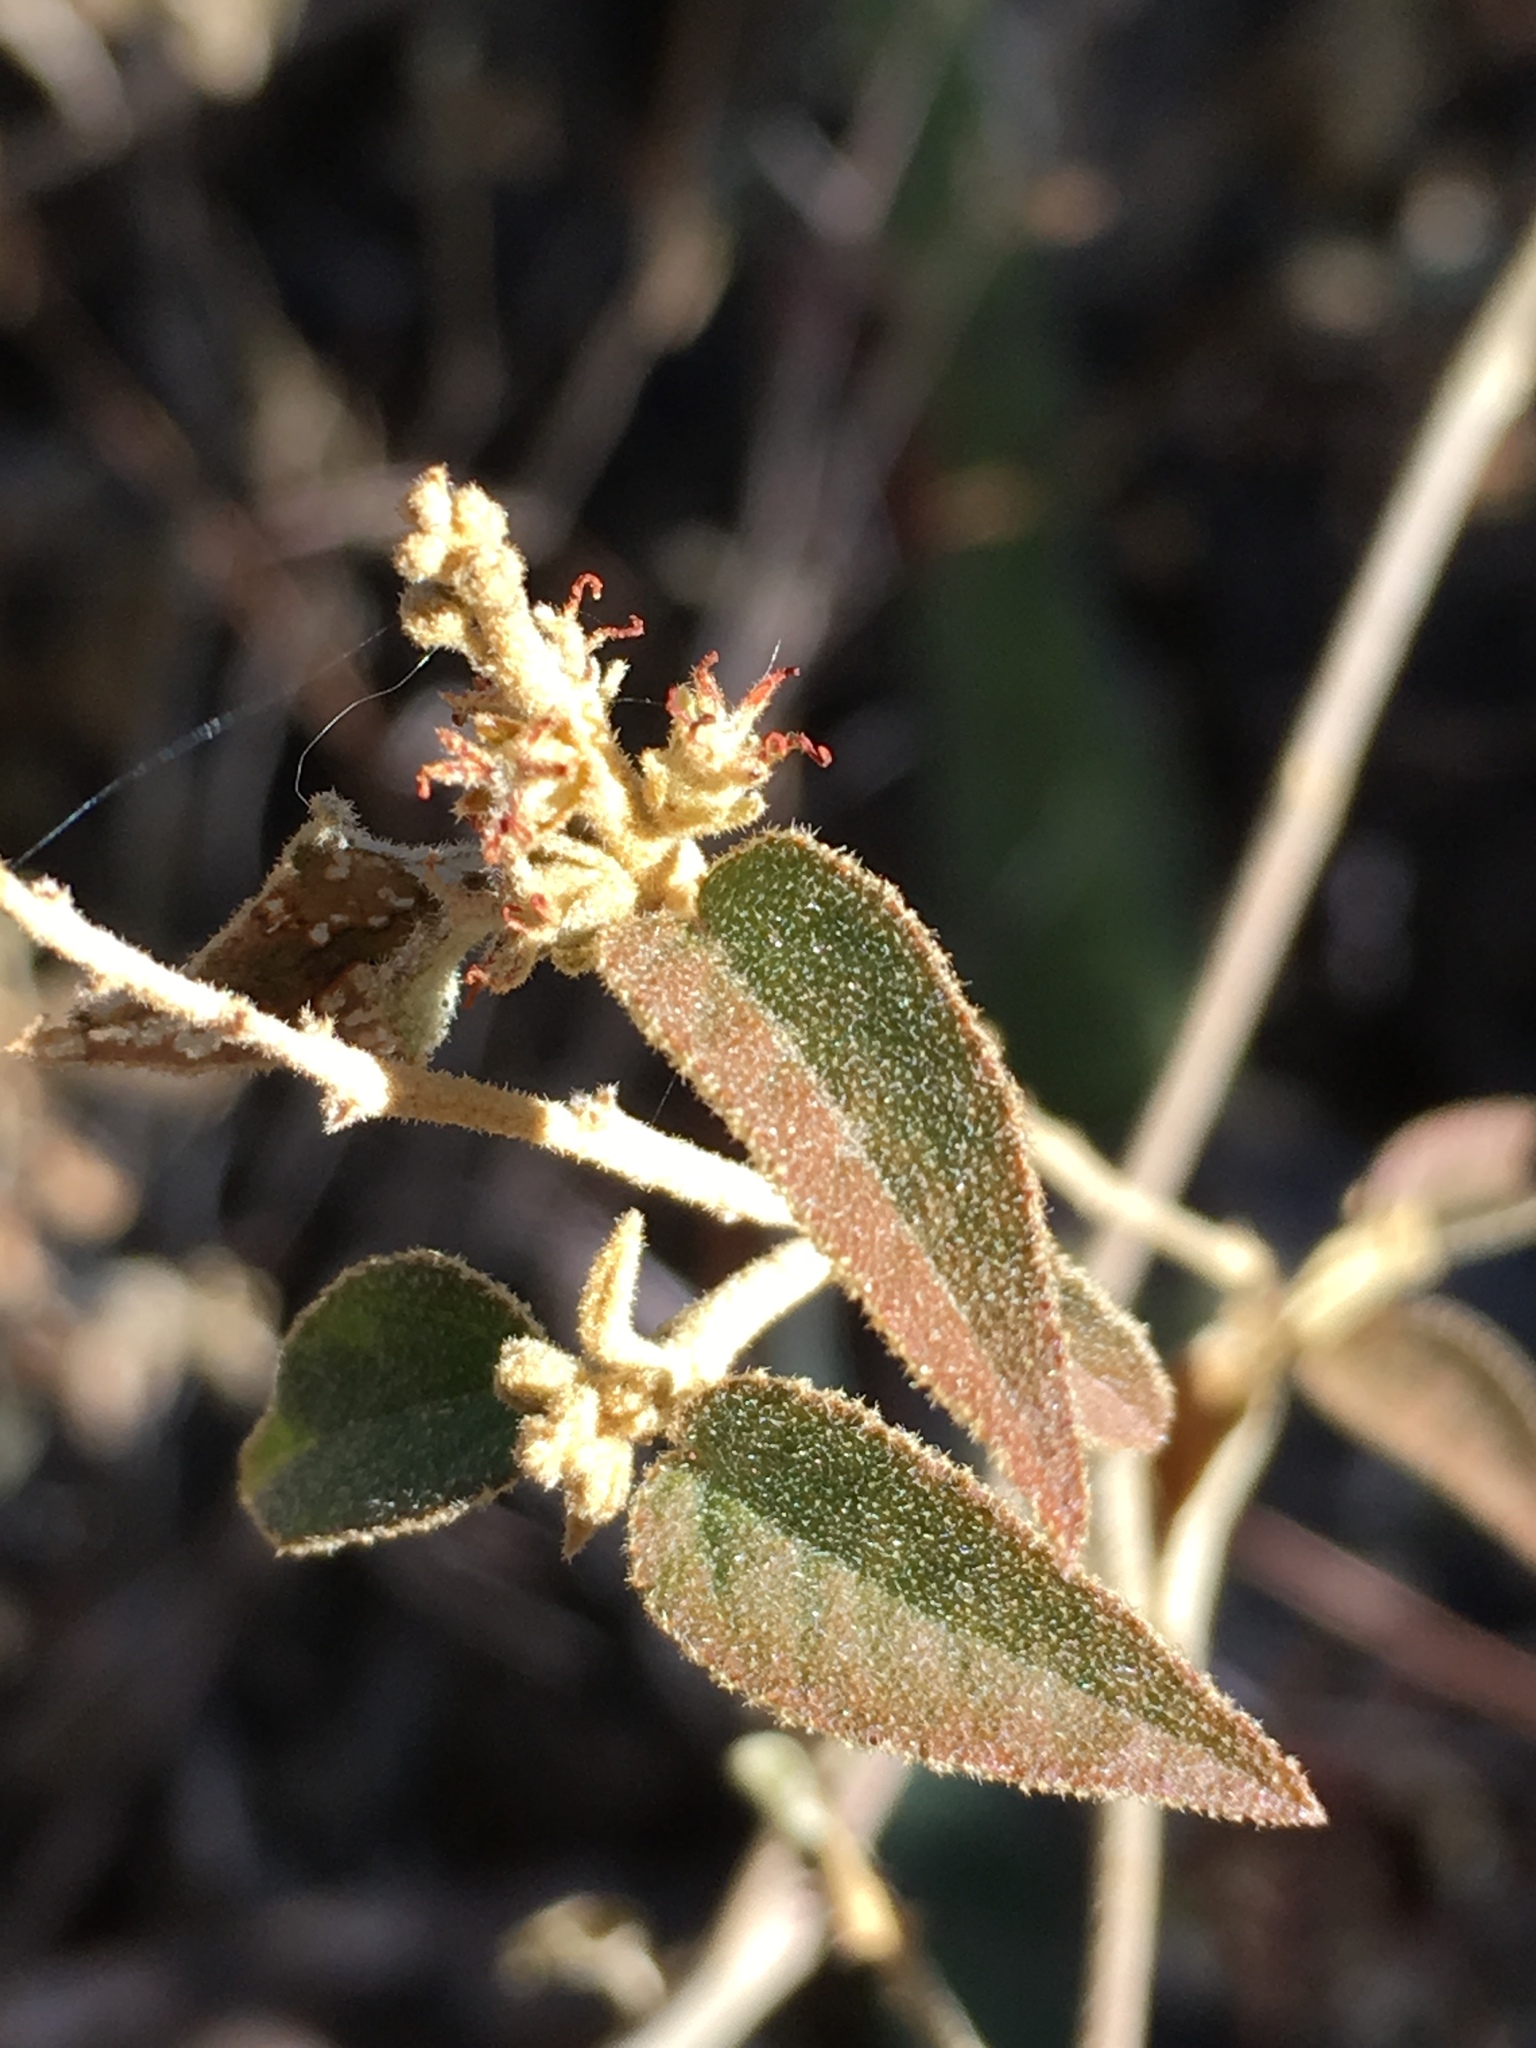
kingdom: Plantae
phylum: Tracheophyta
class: Magnoliopsida
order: Malpighiales
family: Euphorbiaceae
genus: Croton
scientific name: Croton fruticulosus
